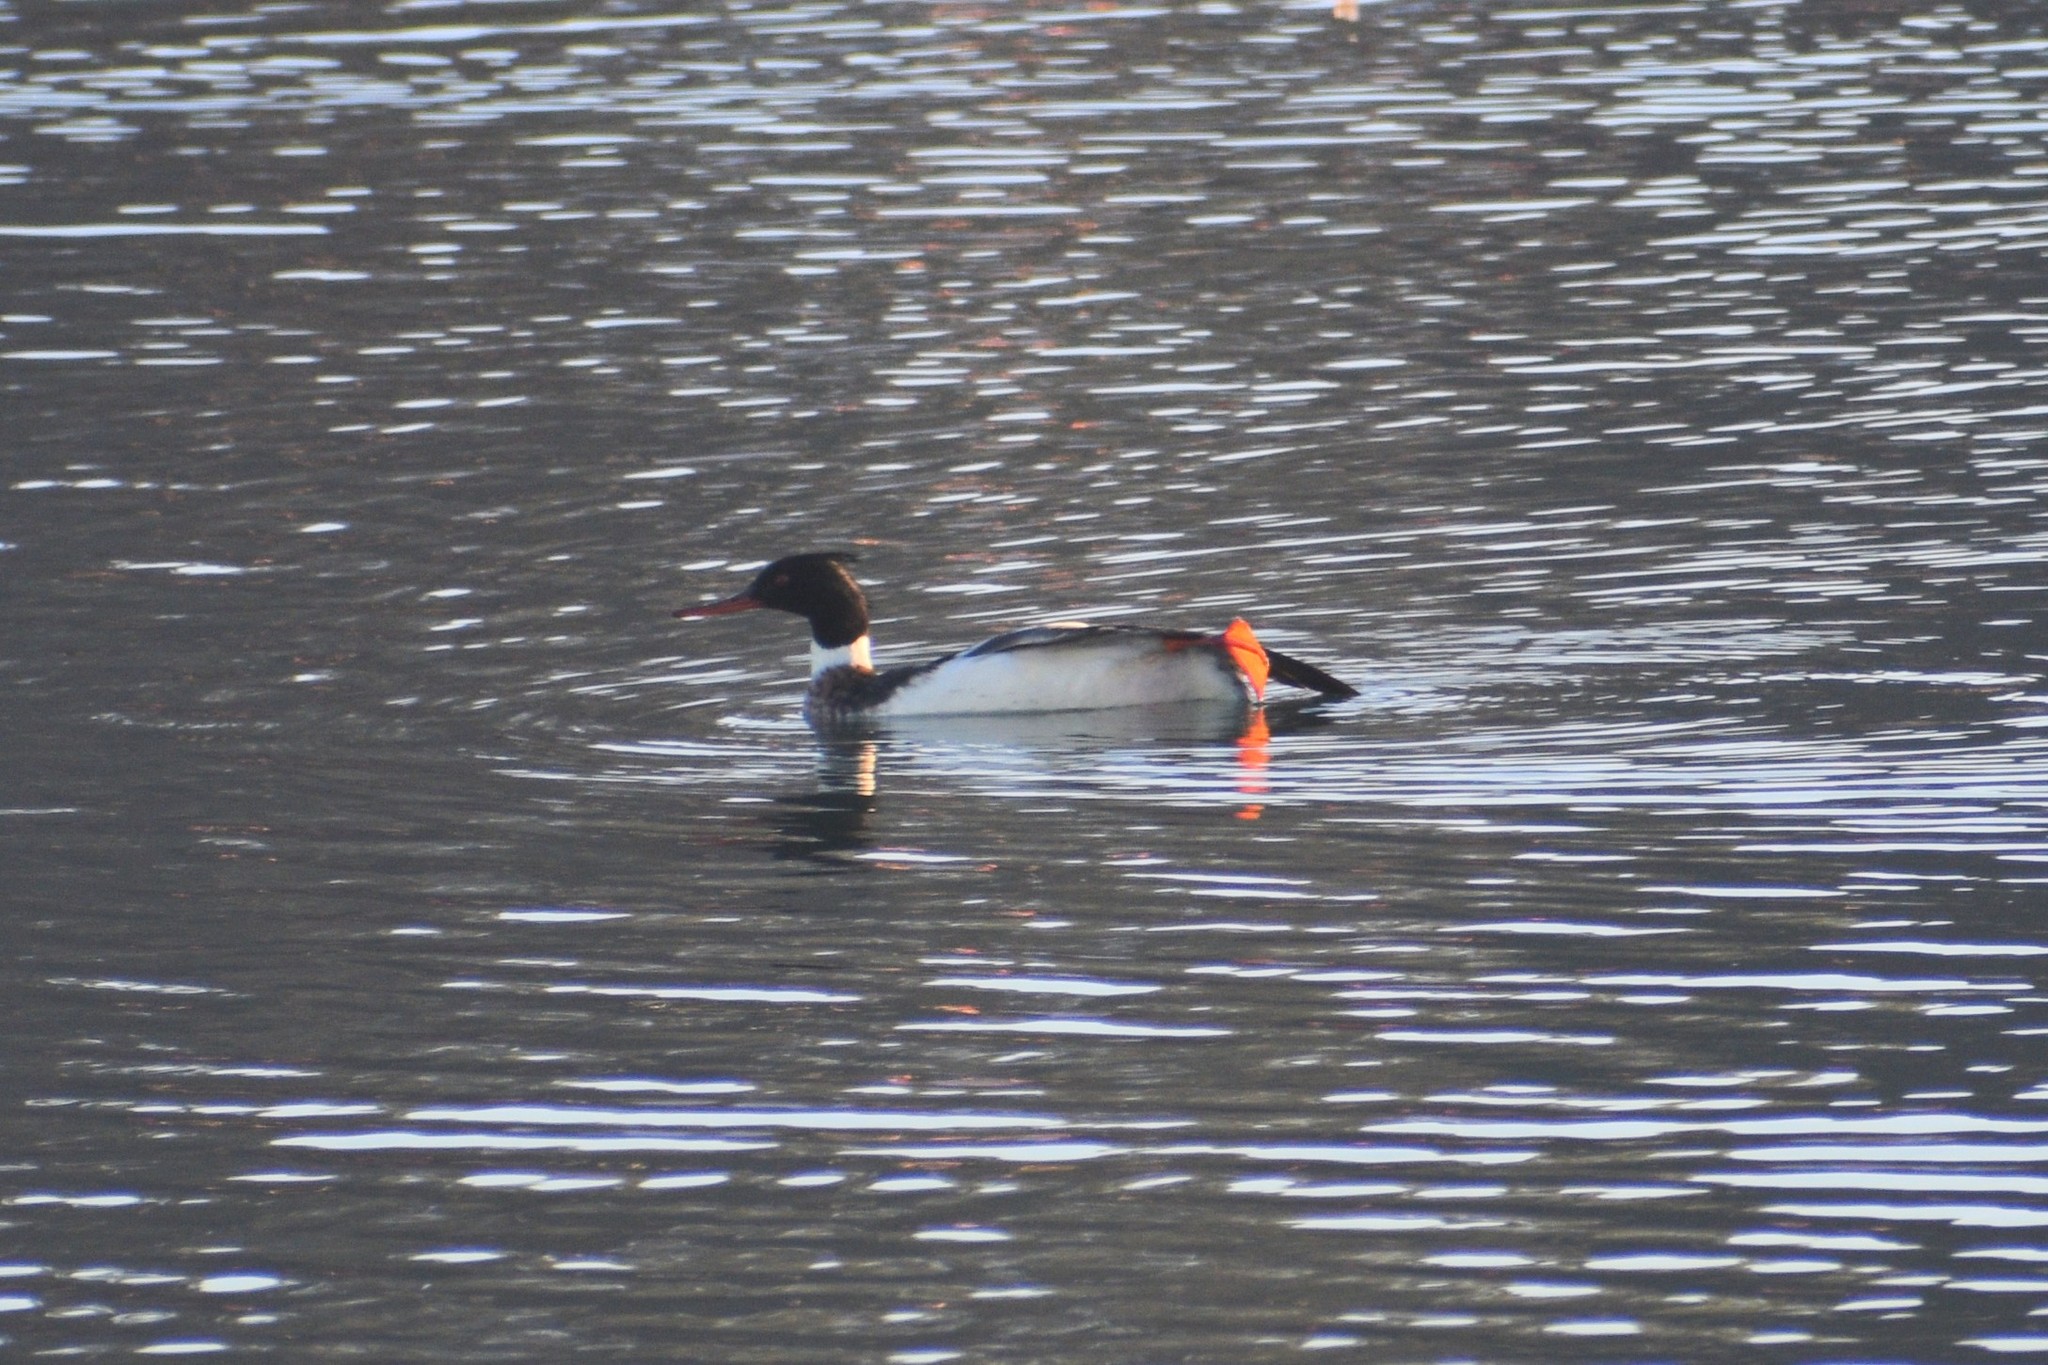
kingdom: Animalia
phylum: Chordata
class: Aves
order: Anseriformes
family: Anatidae
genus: Mergus
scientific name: Mergus serrator
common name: Red-breasted merganser
